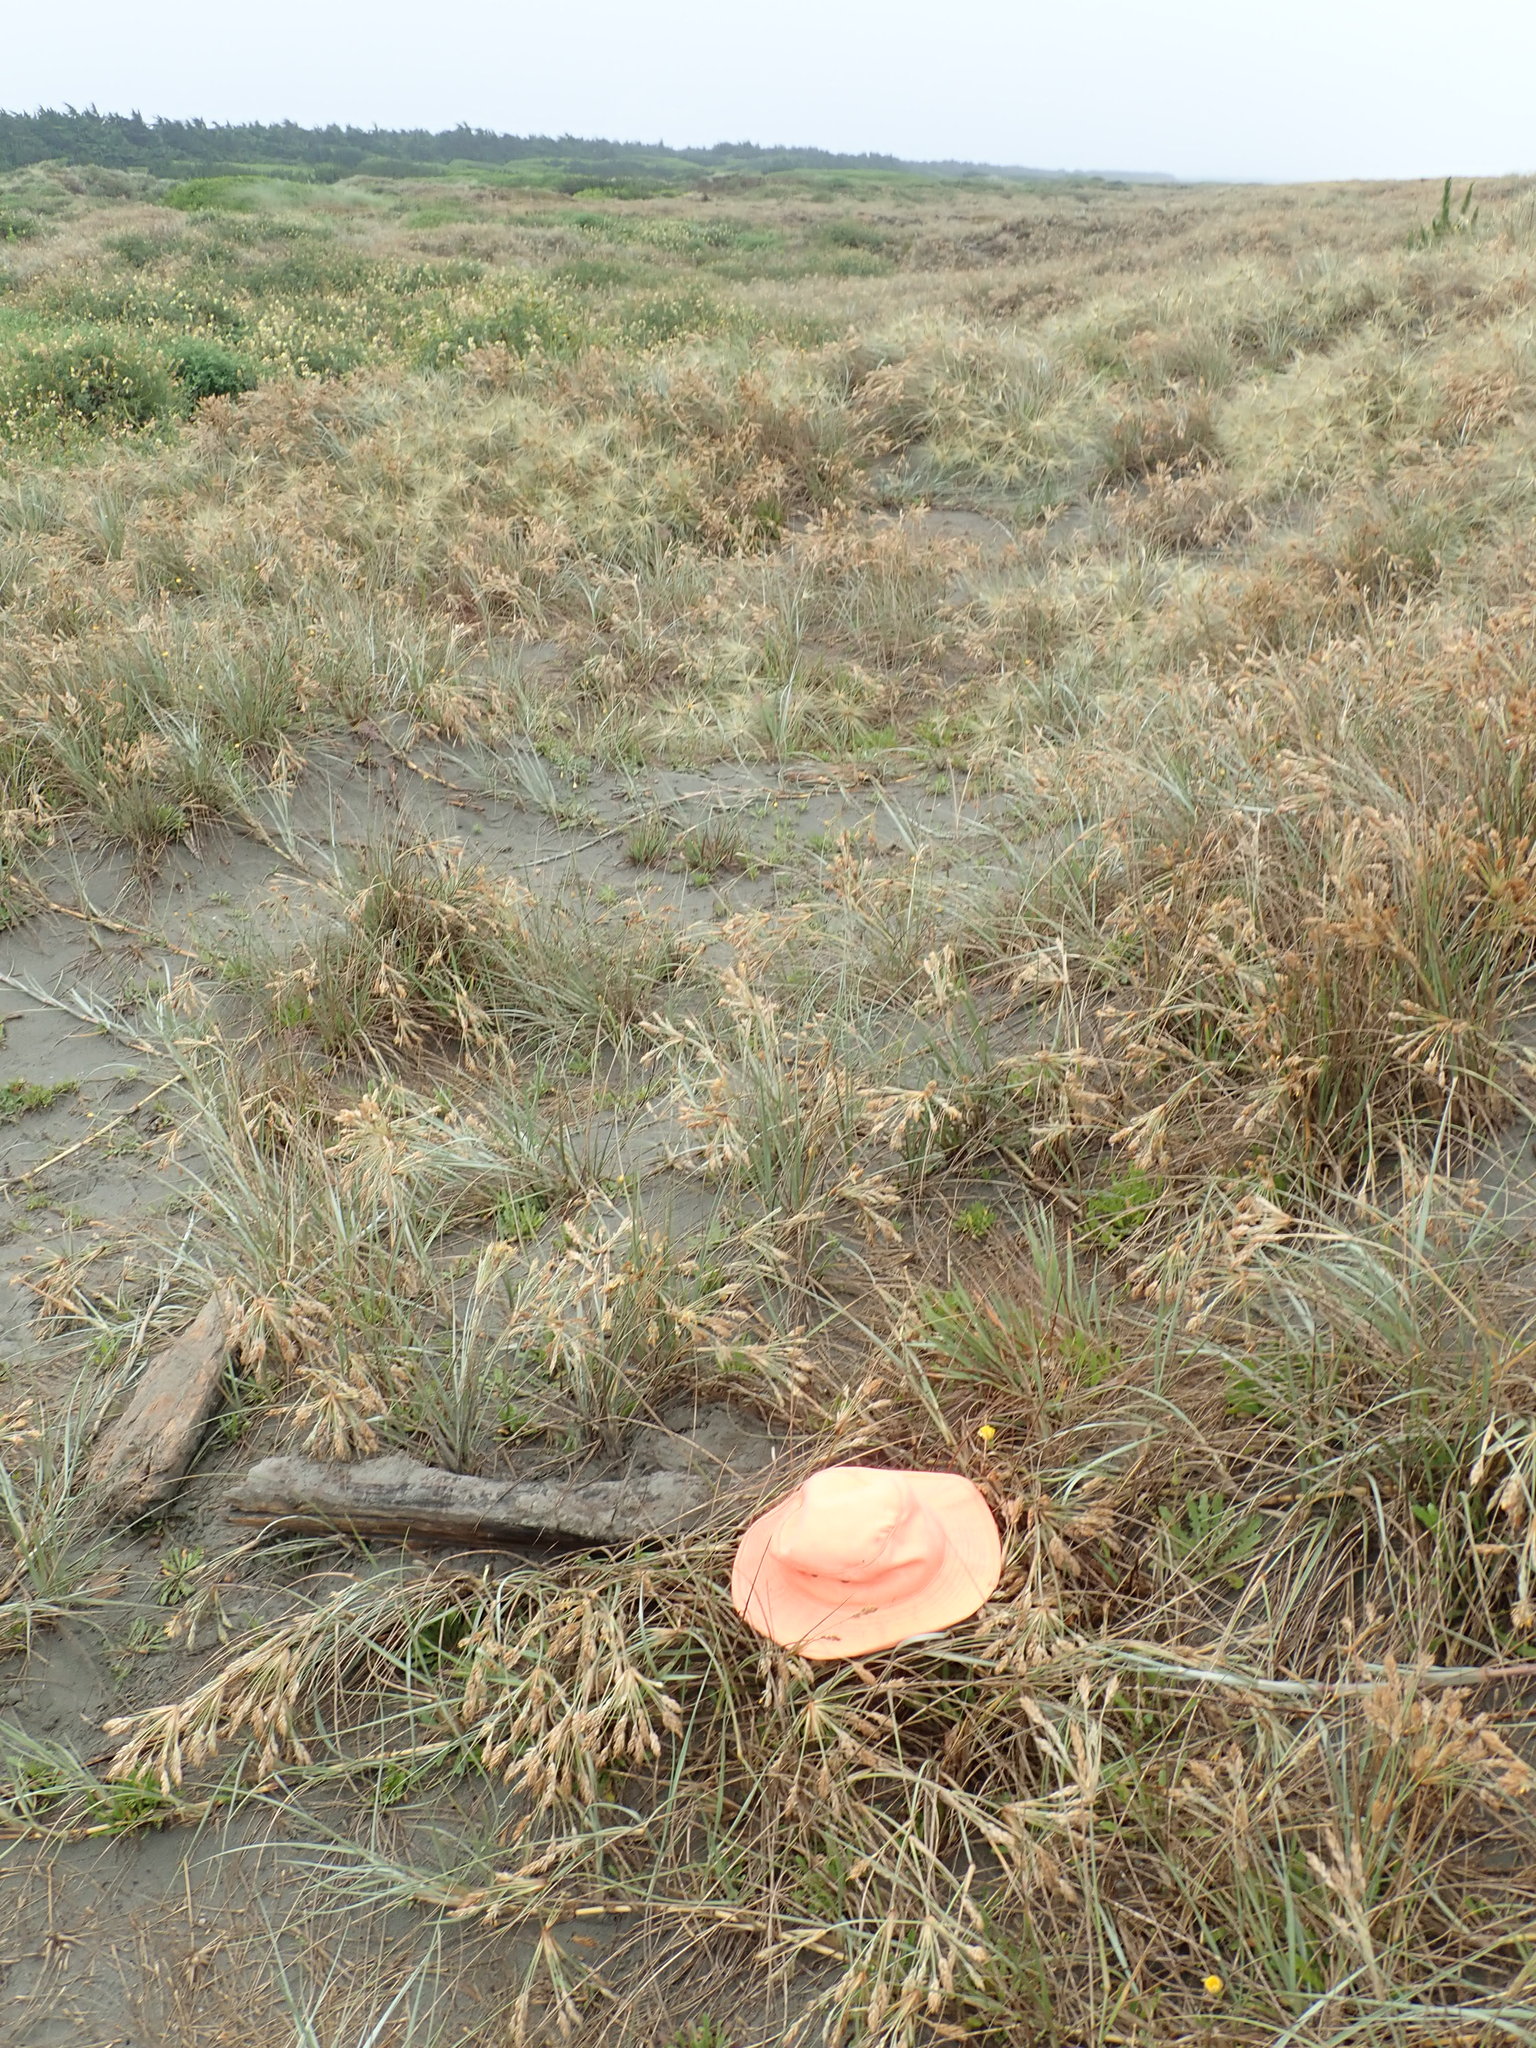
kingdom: Animalia
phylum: Arthropoda
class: Arachnida
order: Araneae
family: Theridiidae
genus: Latrodectus
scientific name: Latrodectus katipo
